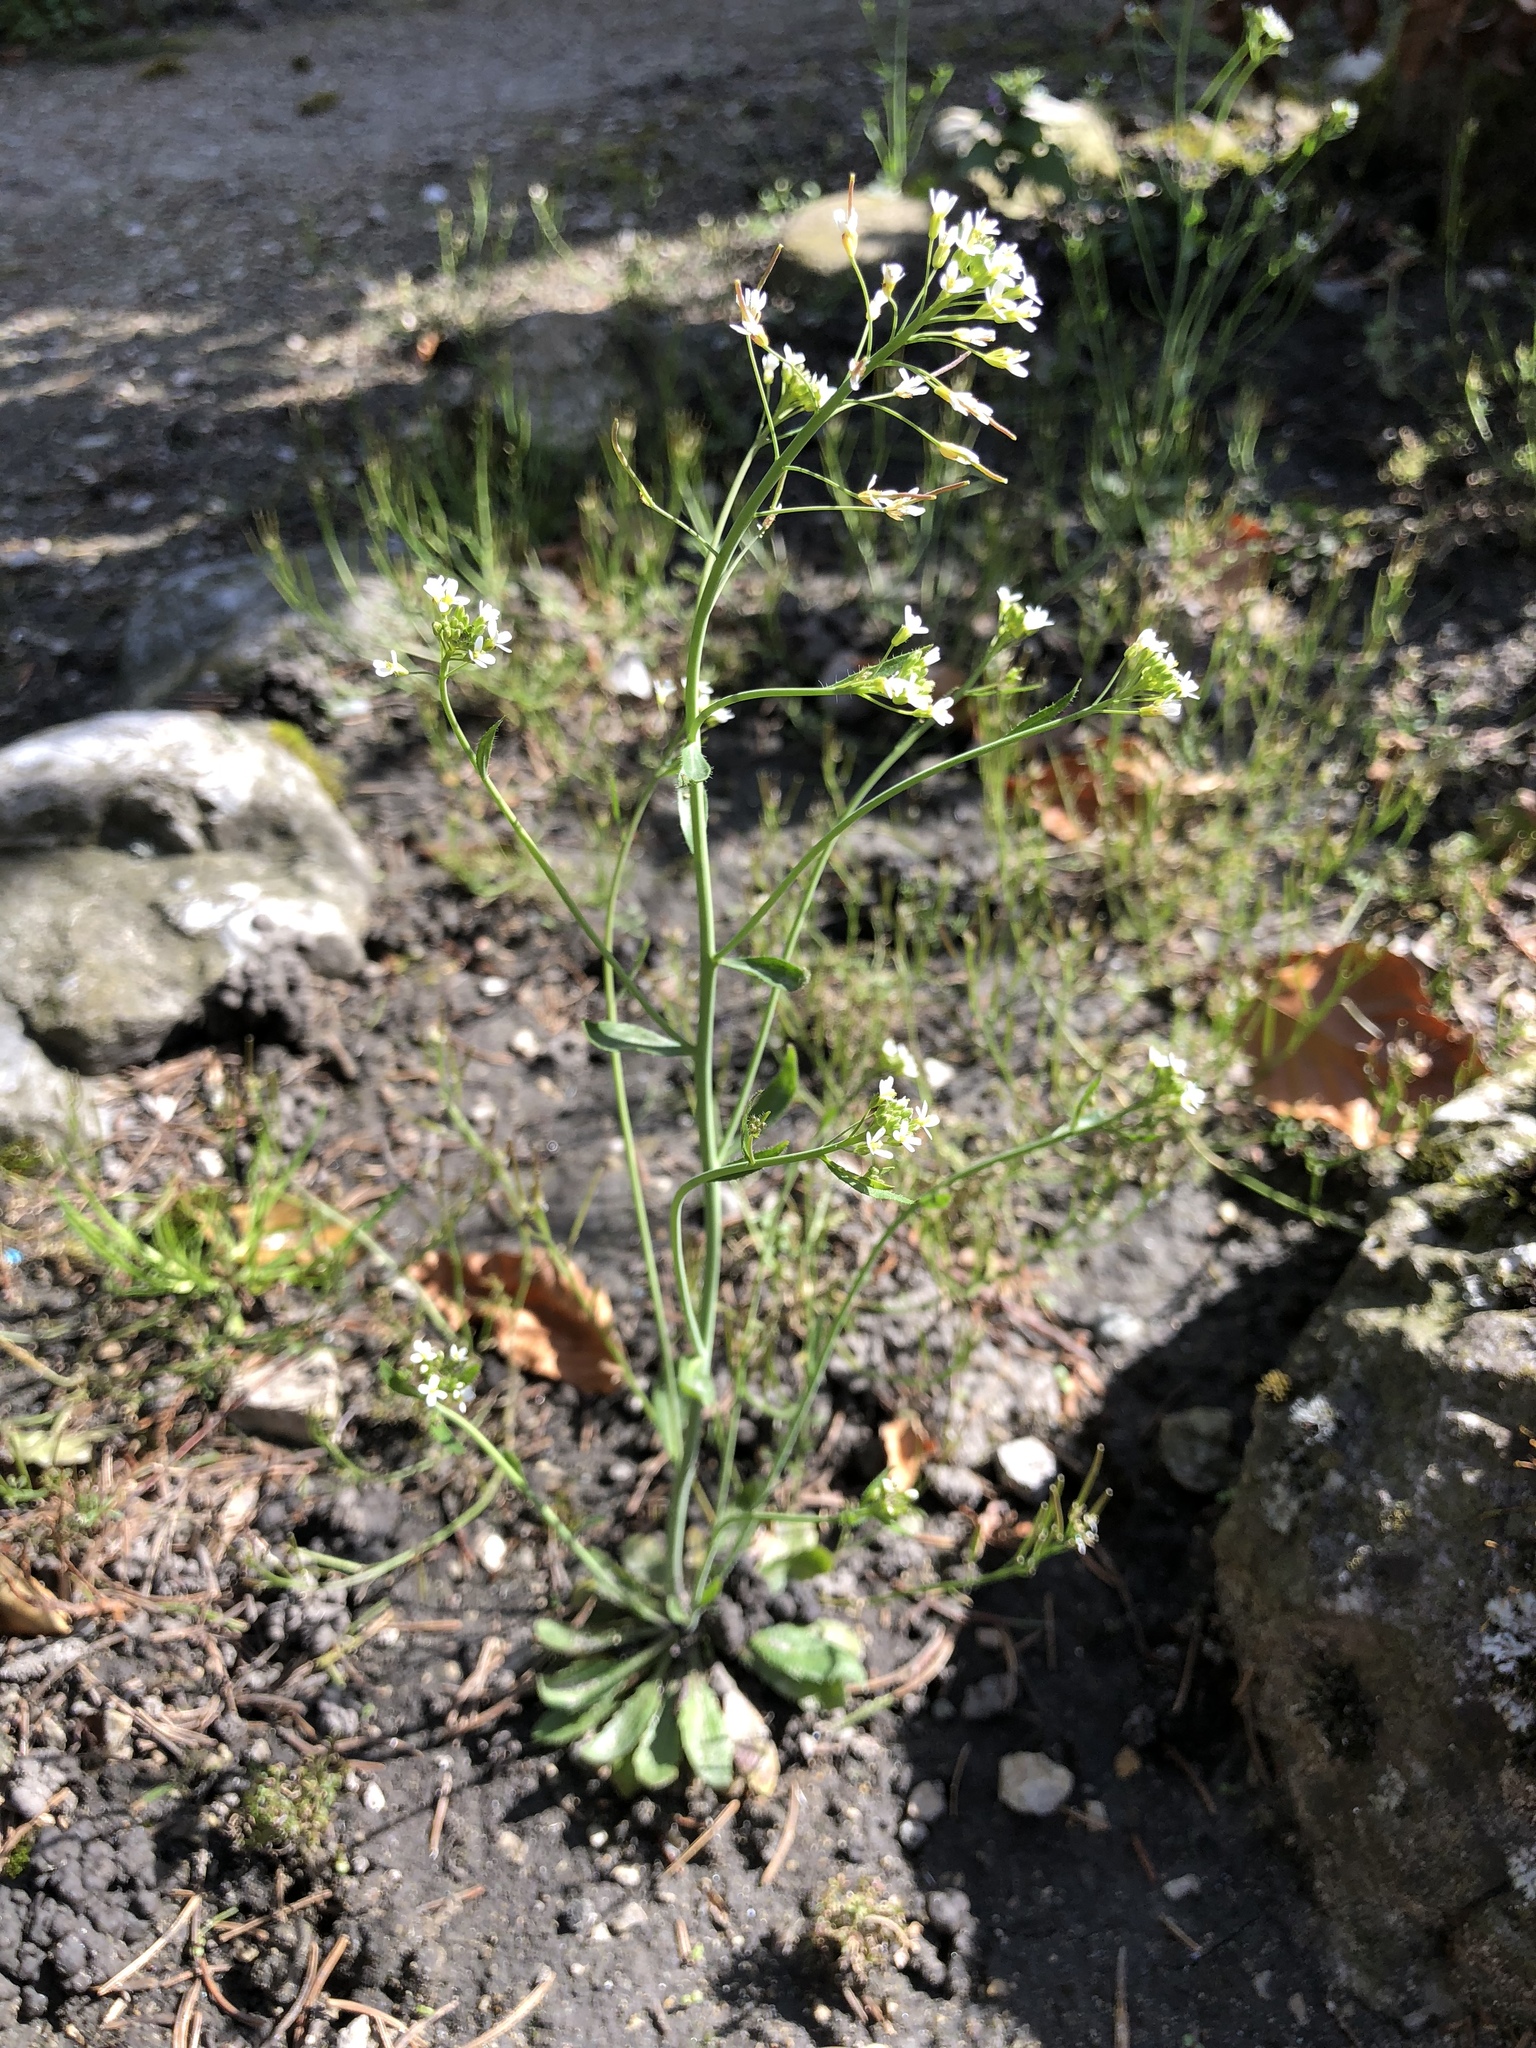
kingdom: Plantae
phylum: Tracheophyta
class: Magnoliopsida
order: Brassicales
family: Brassicaceae
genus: Arabidopsis
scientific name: Arabidopsis thaliana
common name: Thale cress
